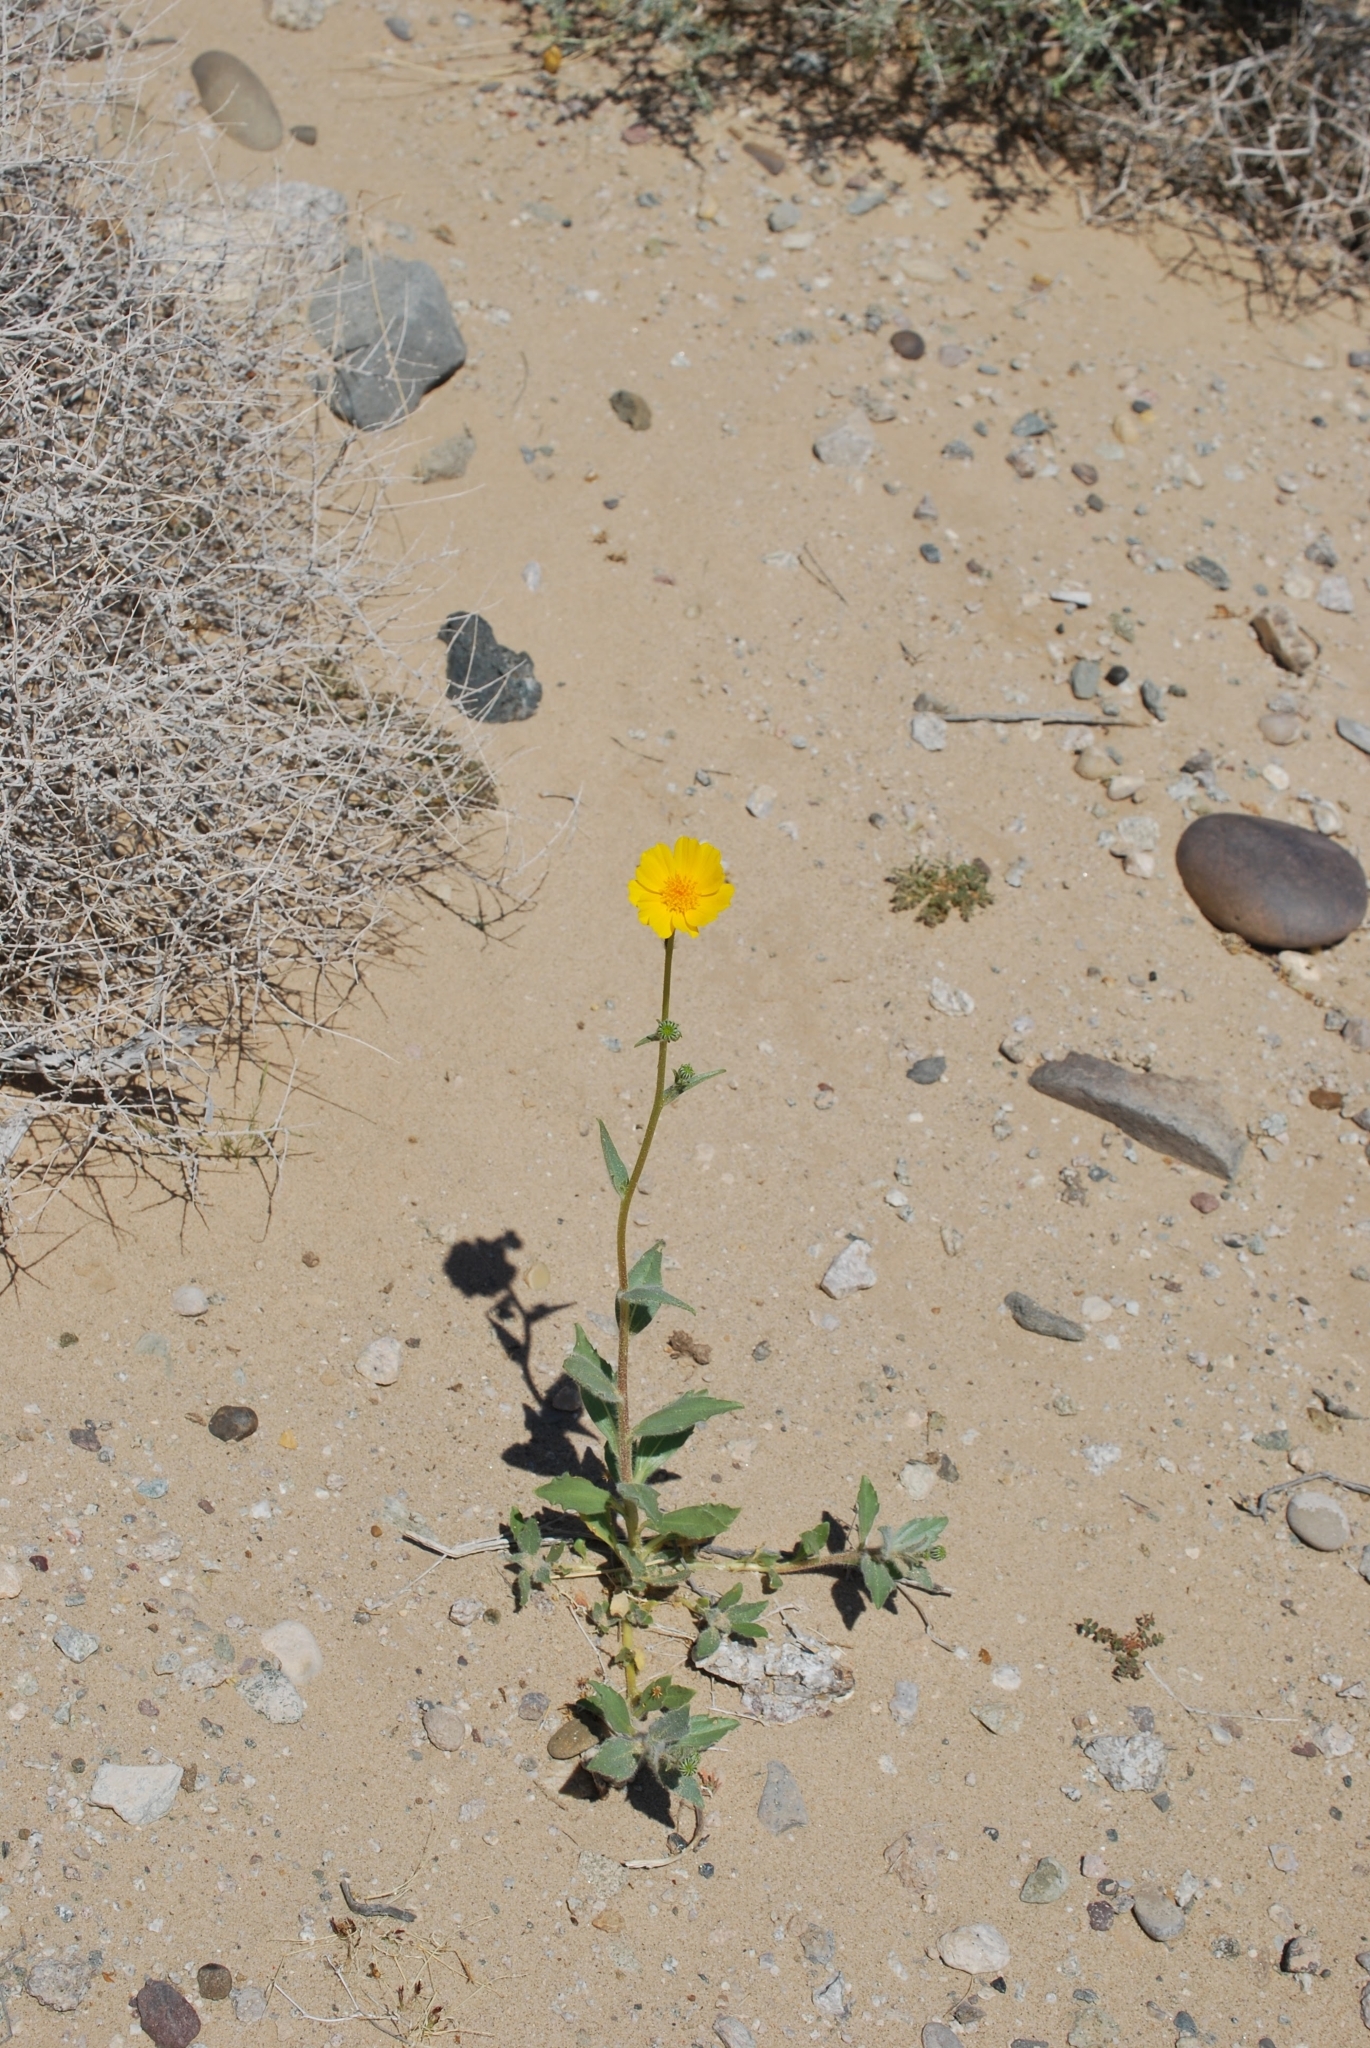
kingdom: Plantae
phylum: Tracheophyta
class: Magnoliopsida
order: Asterales
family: Asteraceae
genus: Geraea
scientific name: Geraea canescens
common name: Desert-gold
